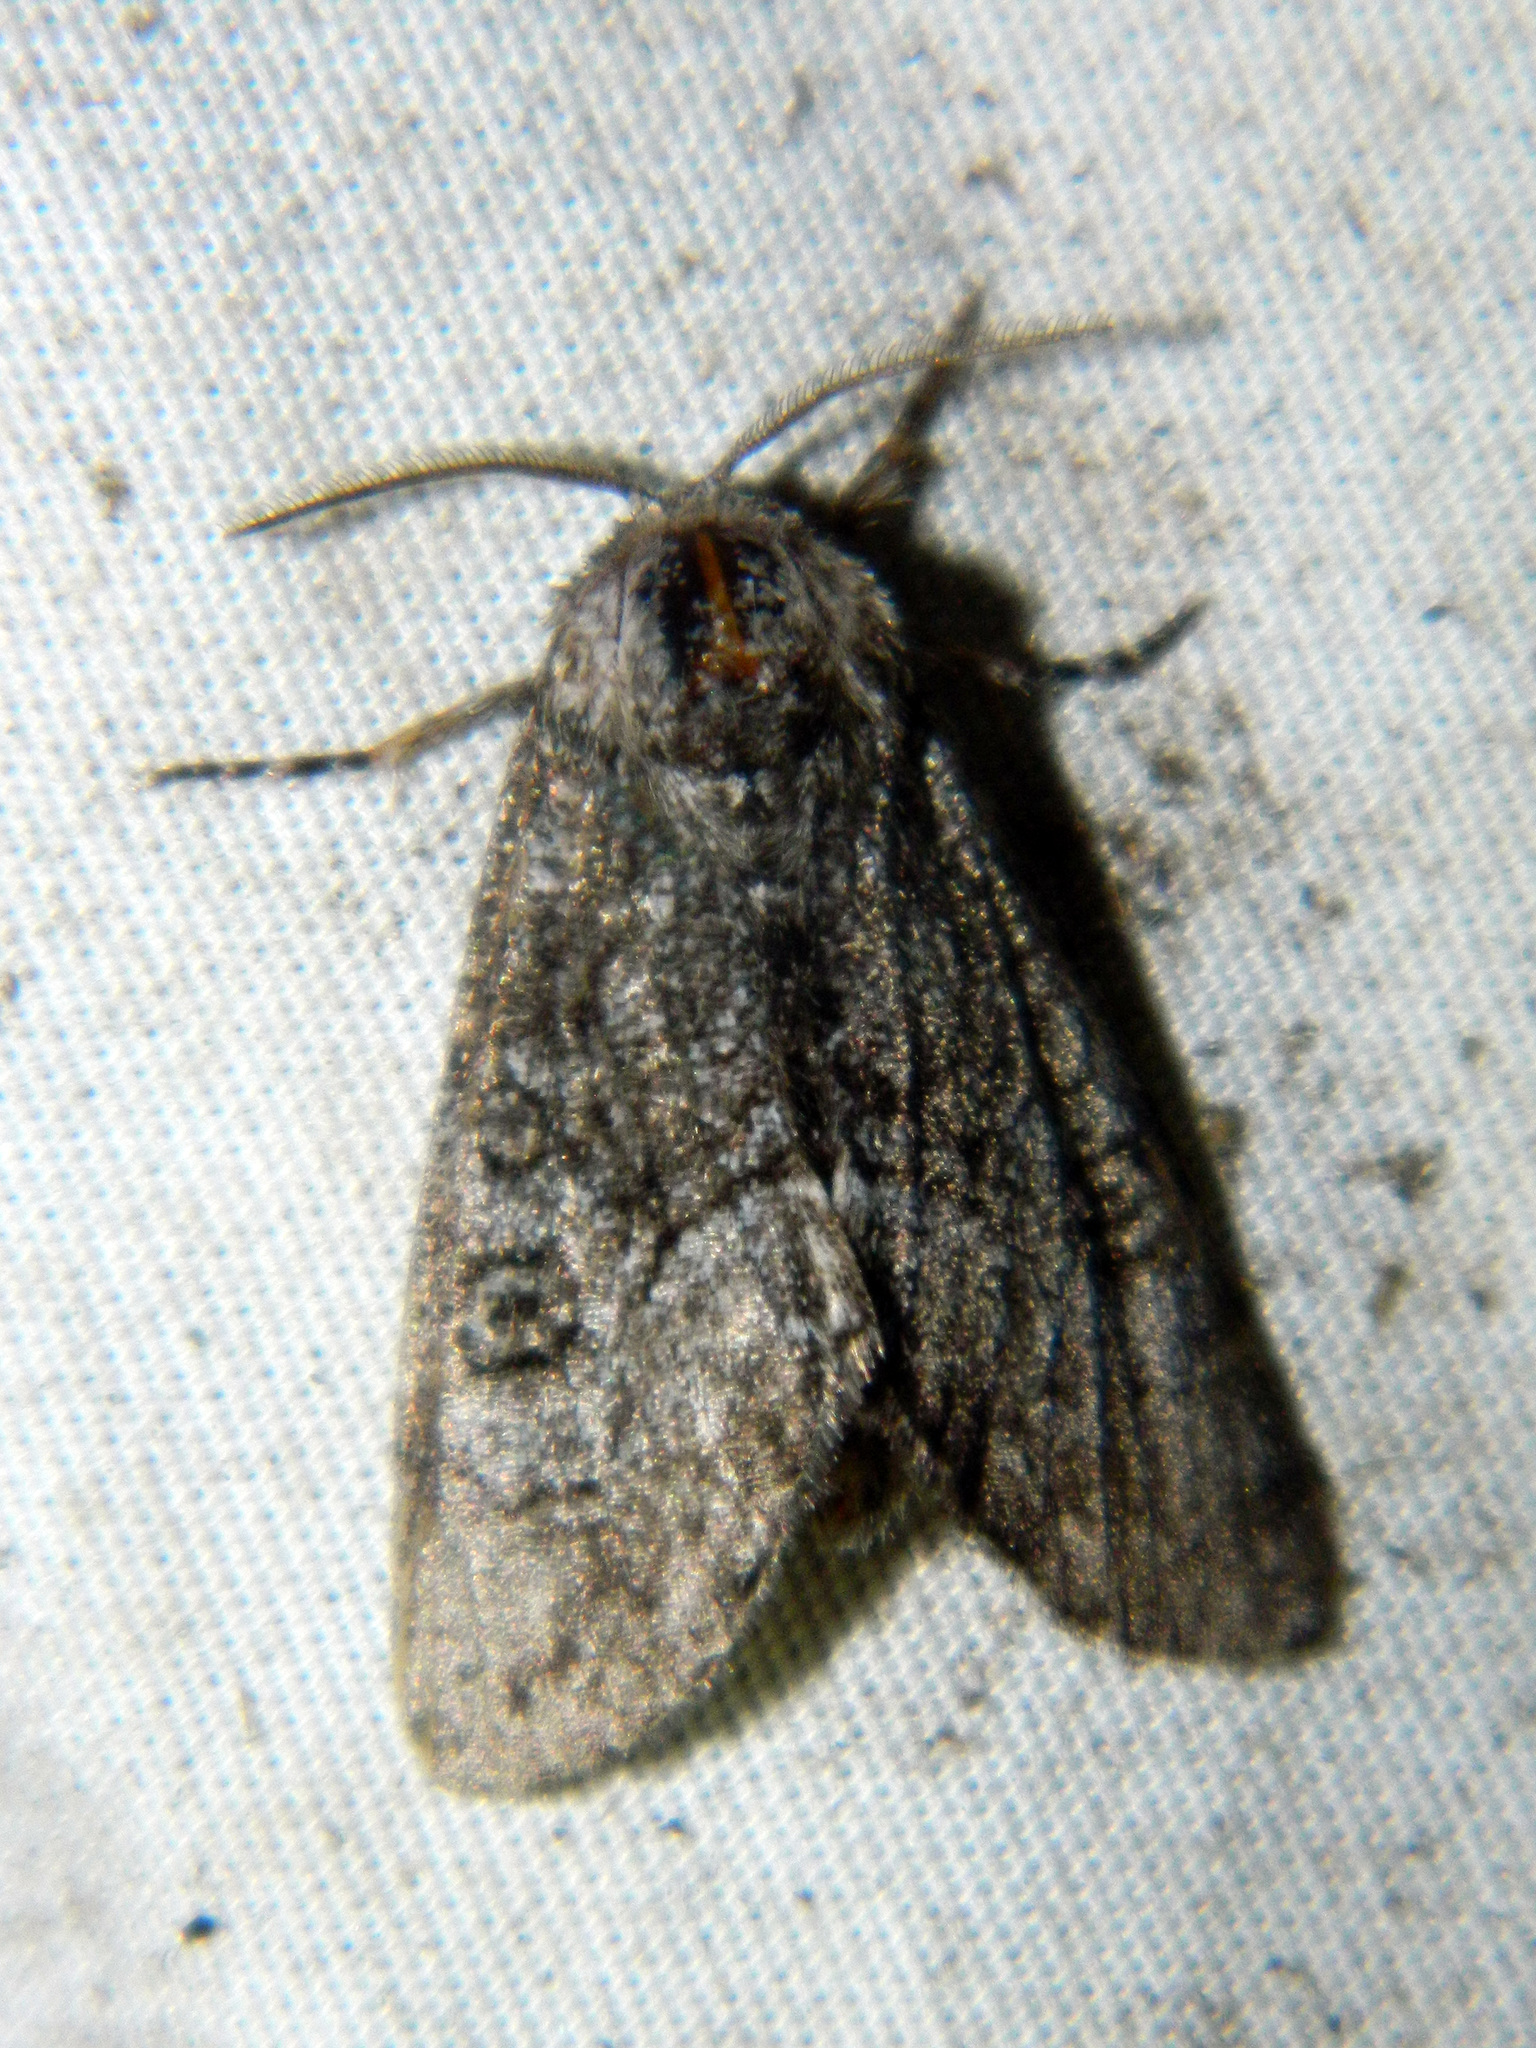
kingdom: Animalia
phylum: Arthropoda
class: Insecta
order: Lepidoptera
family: Noctuidae
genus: Raphia
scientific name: Raphia frater
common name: Brother
